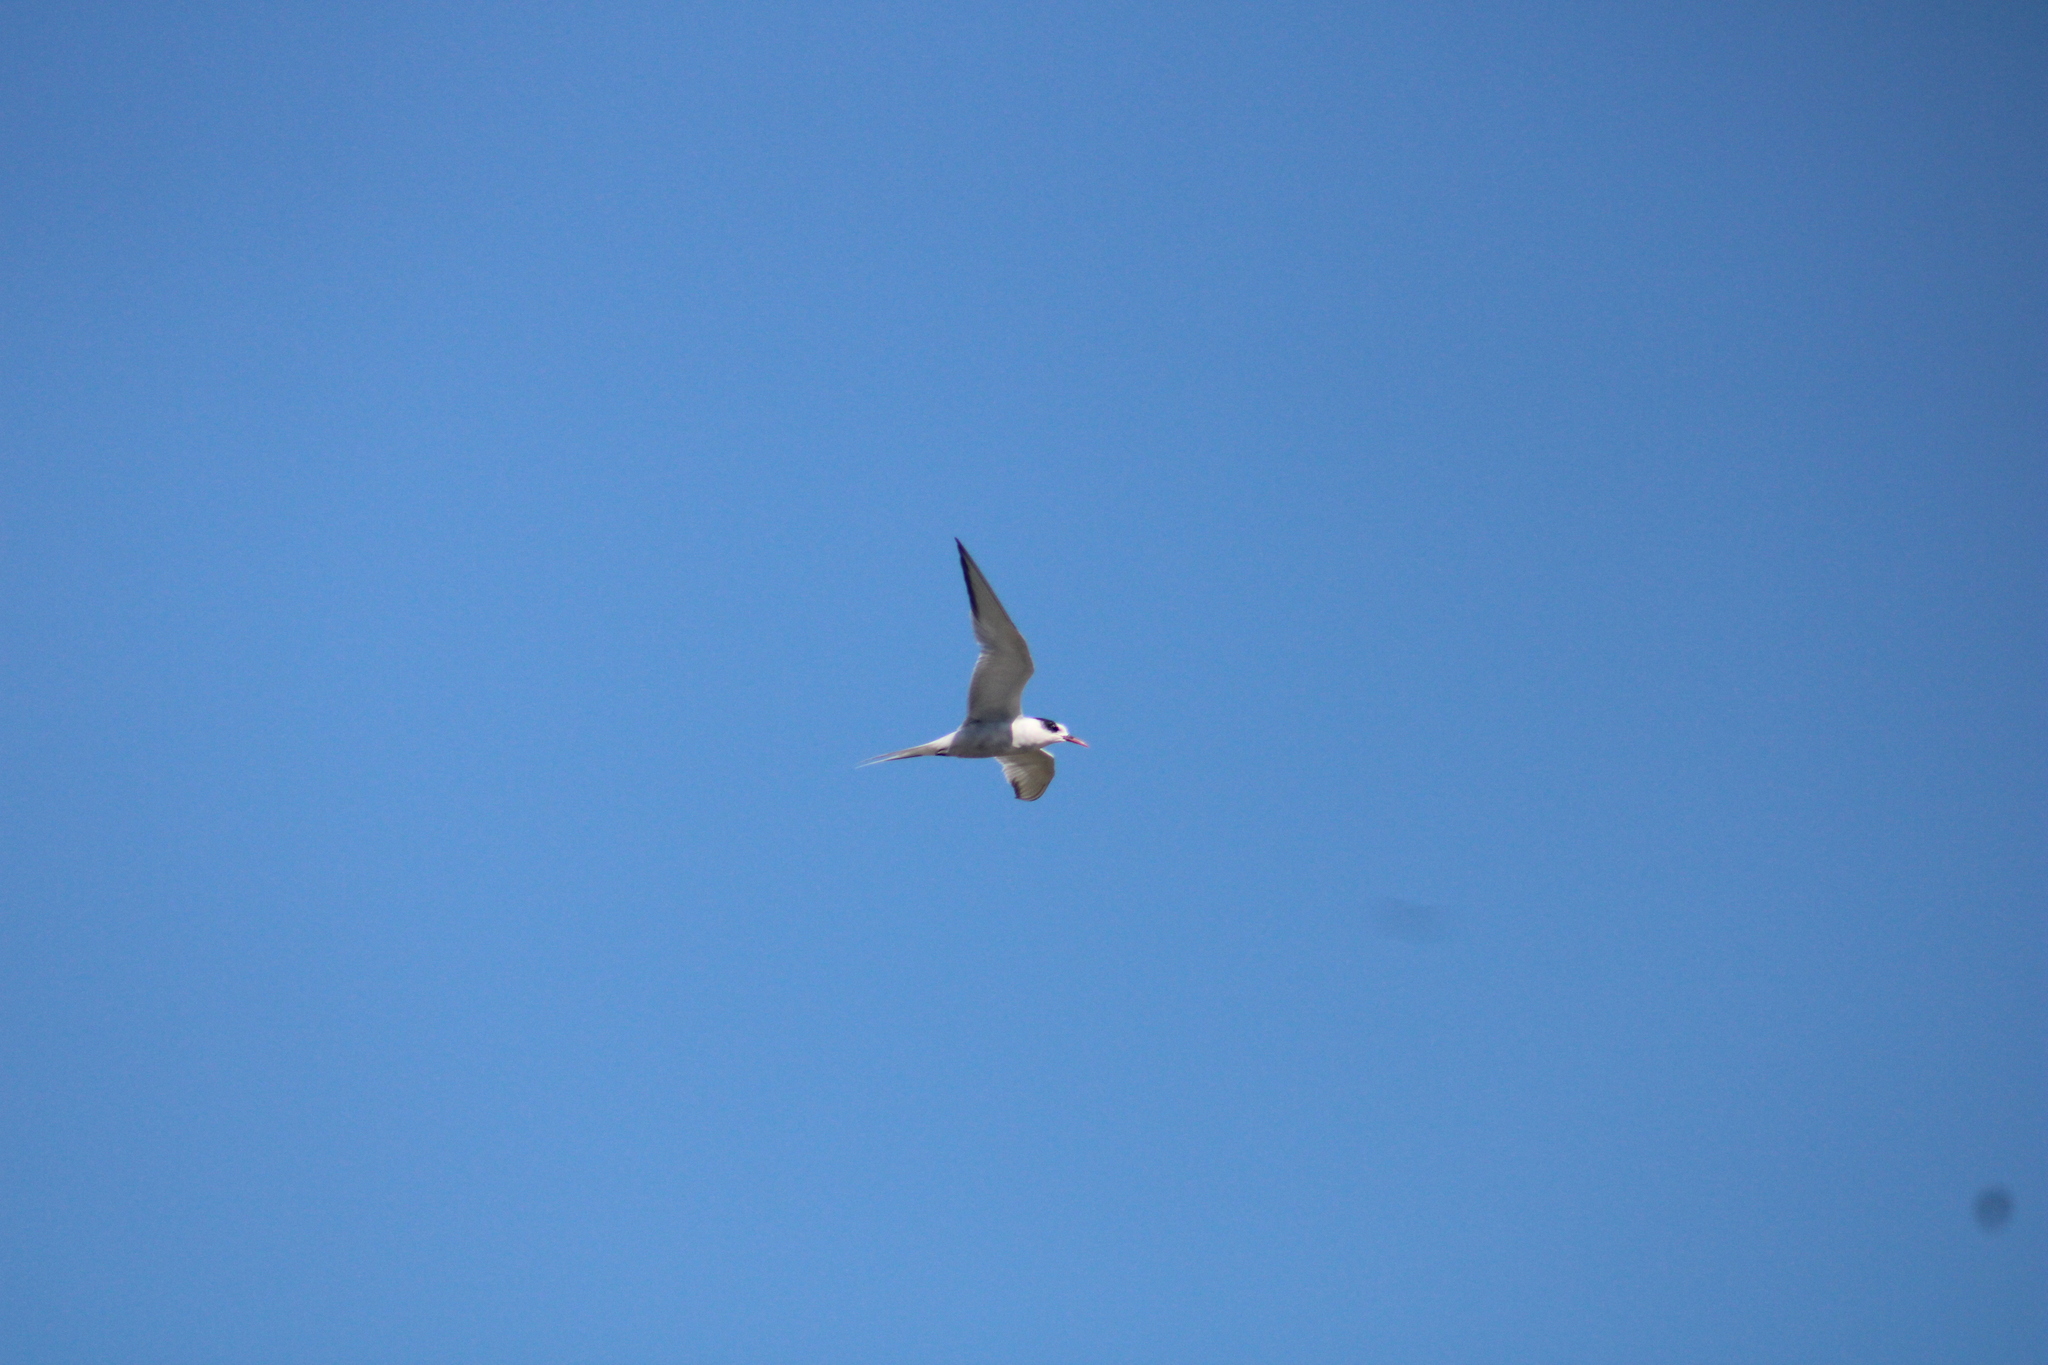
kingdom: Animalia
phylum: Chordata
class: Aves
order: Charadriiformes
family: Laridae
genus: Sterna
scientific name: Sterna hirundinacea
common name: South american tern
